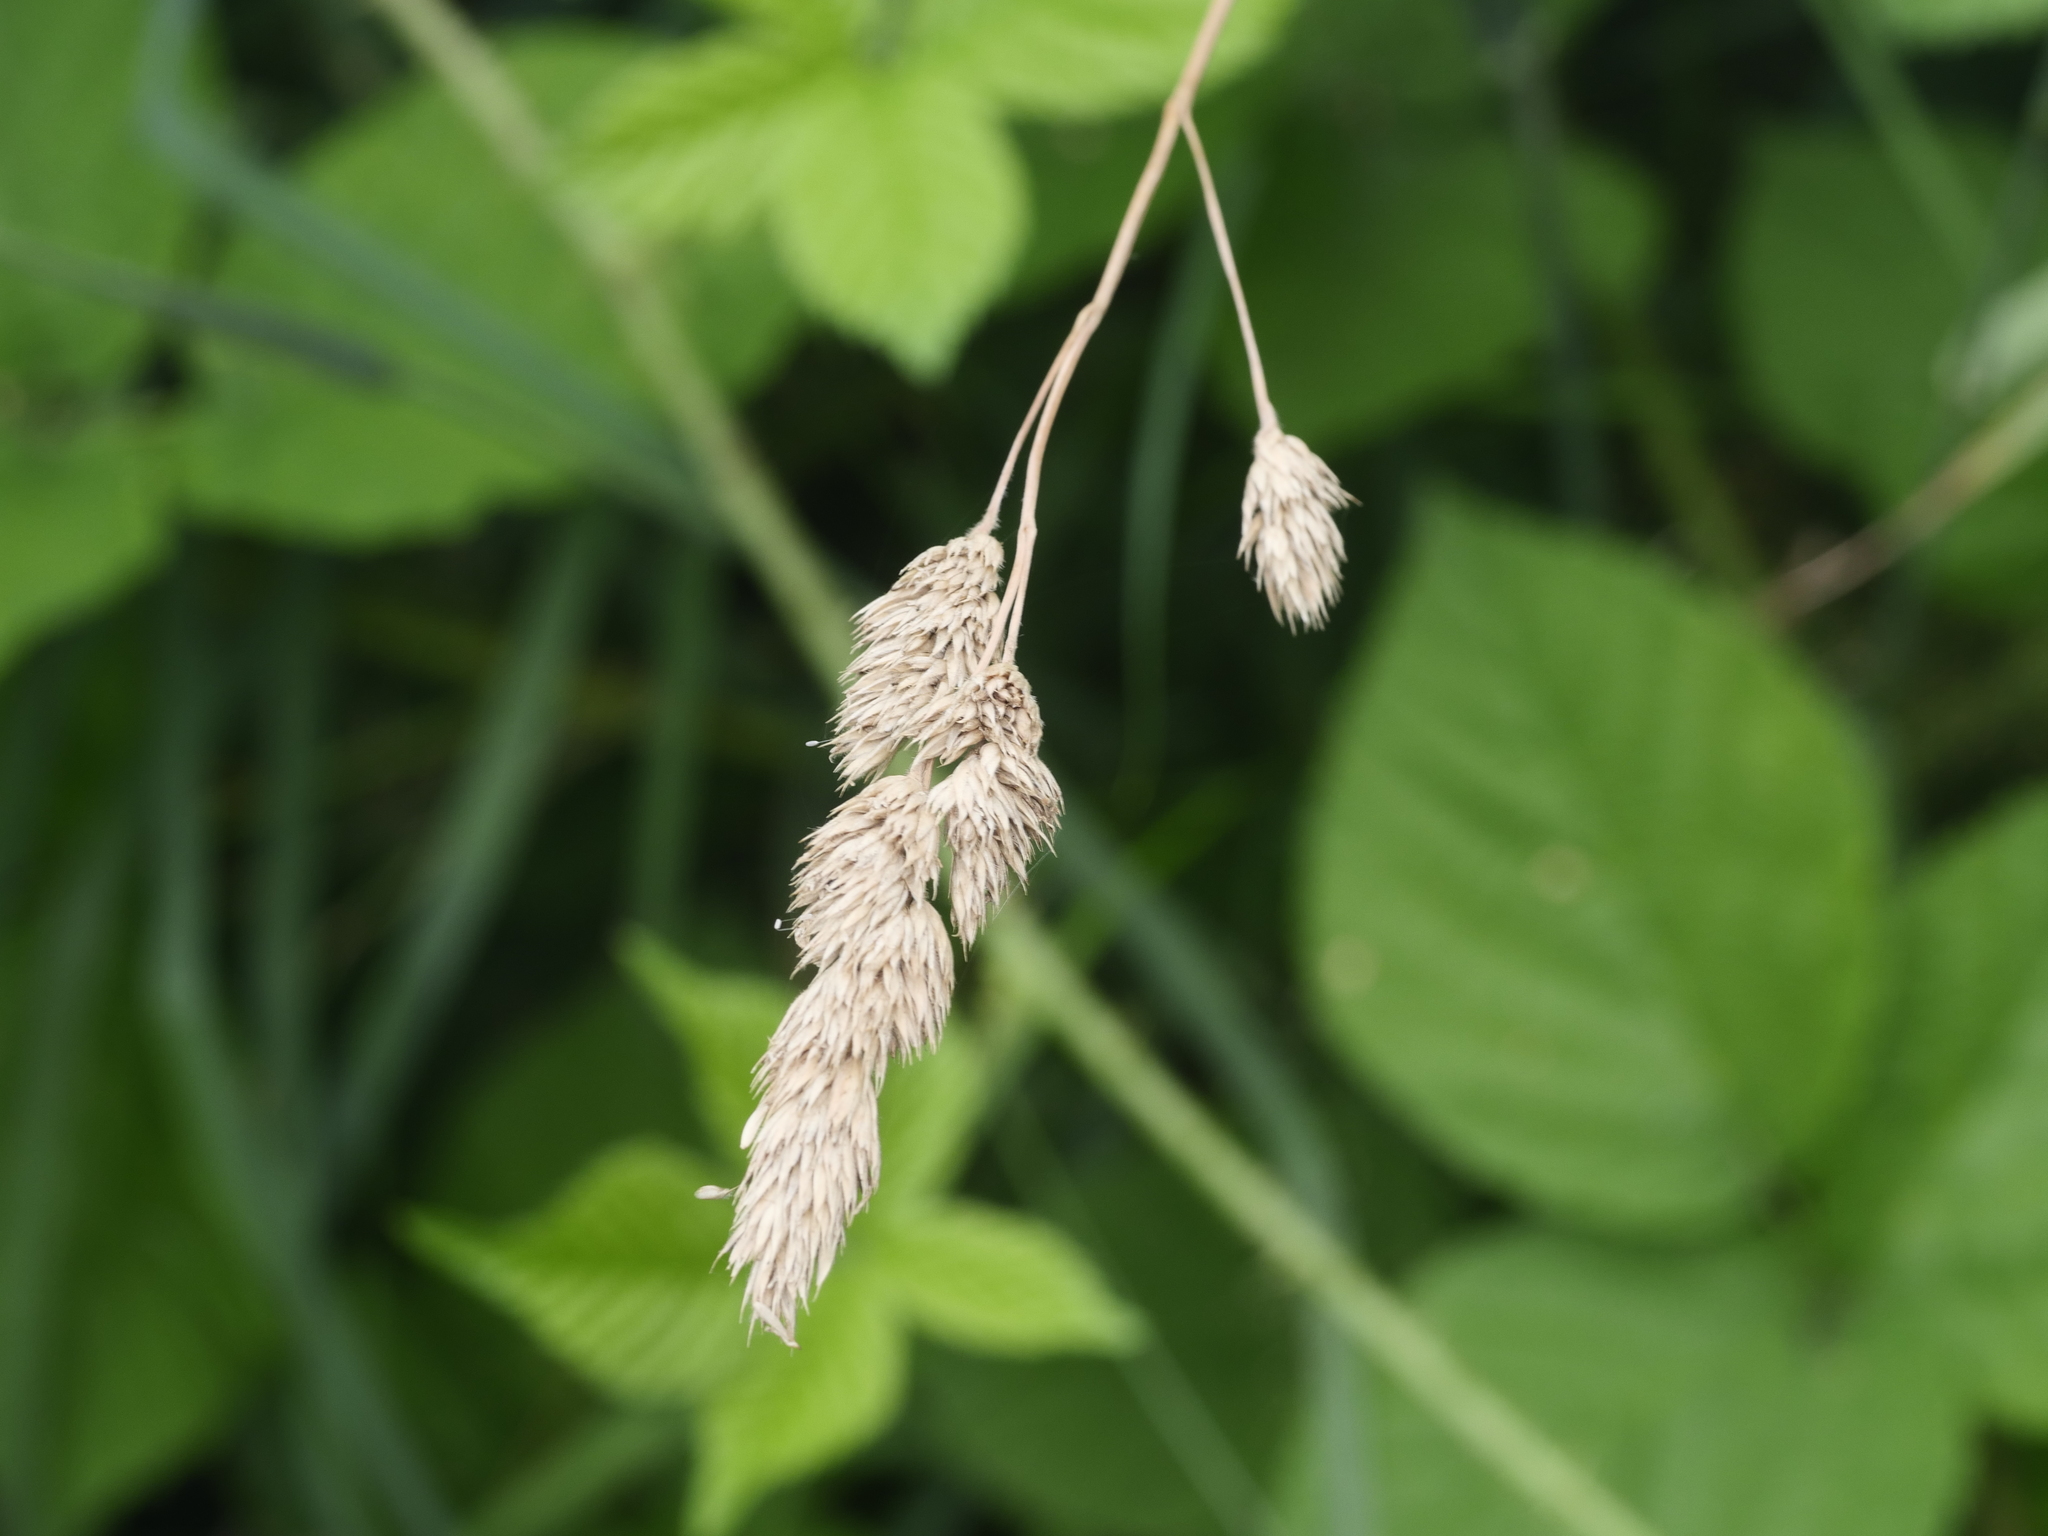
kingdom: Plantae
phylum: Tracheophyta
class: Liliopsida
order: Poales
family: Poaceae
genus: Dactylis
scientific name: Dactylis glomerata
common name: Orchardgrass
